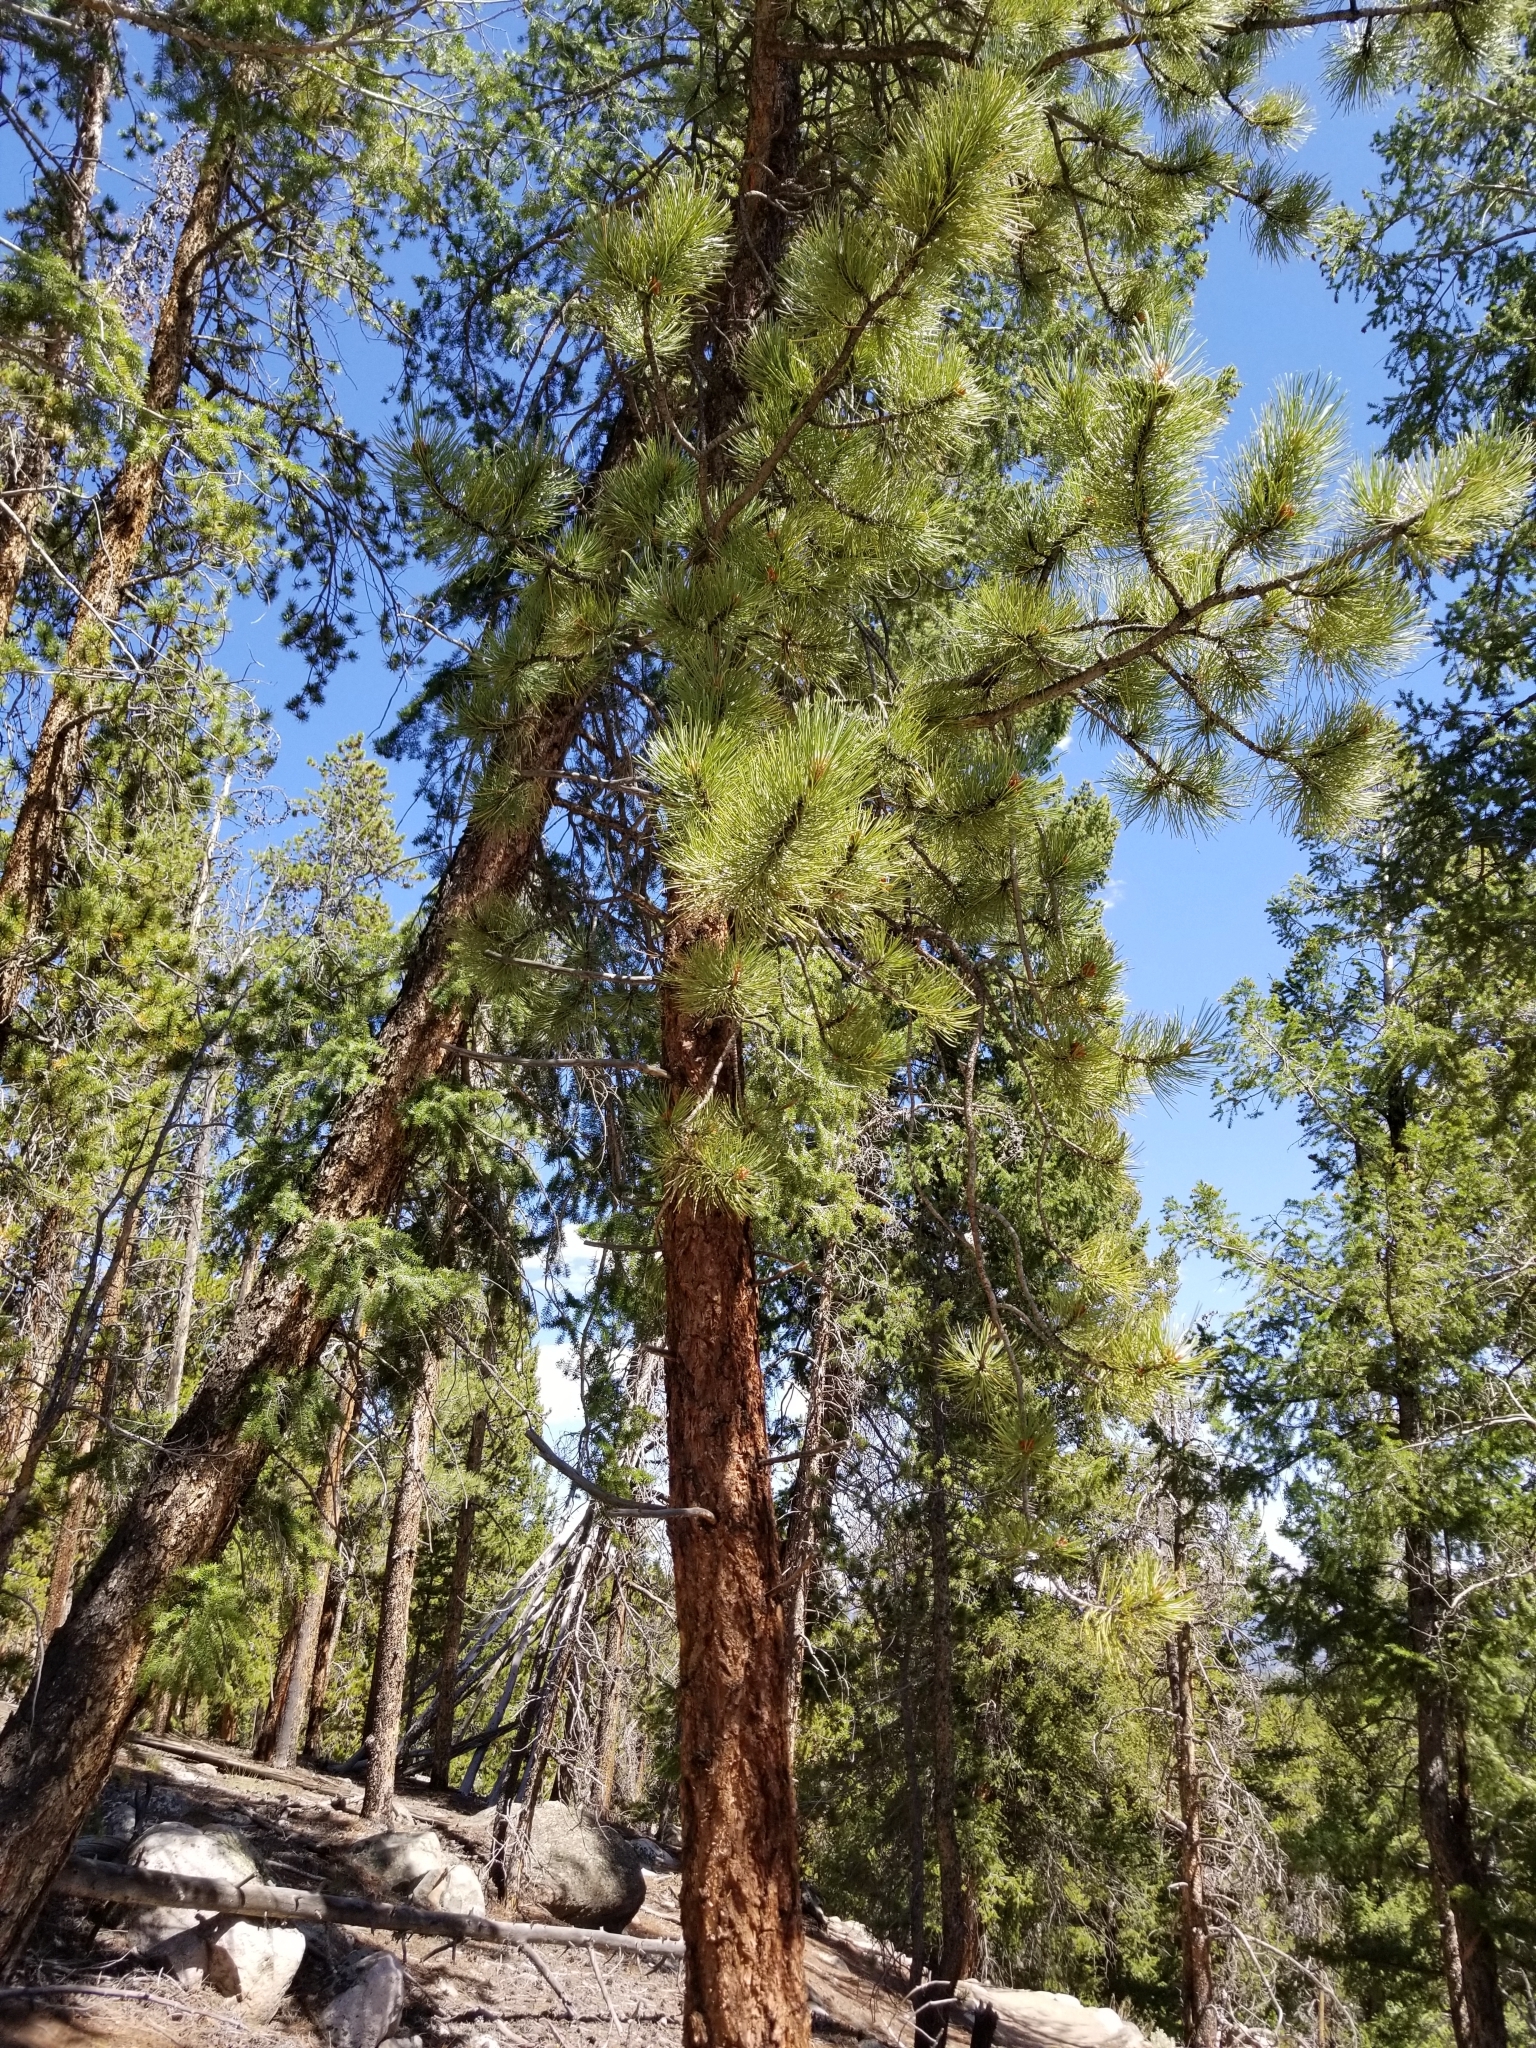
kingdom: Plantae
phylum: Tracheophyta
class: Pinopsida
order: Pinales
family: Pinaceae
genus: Pinus
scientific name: Pinus ponderosa
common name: Western yellow-pine
